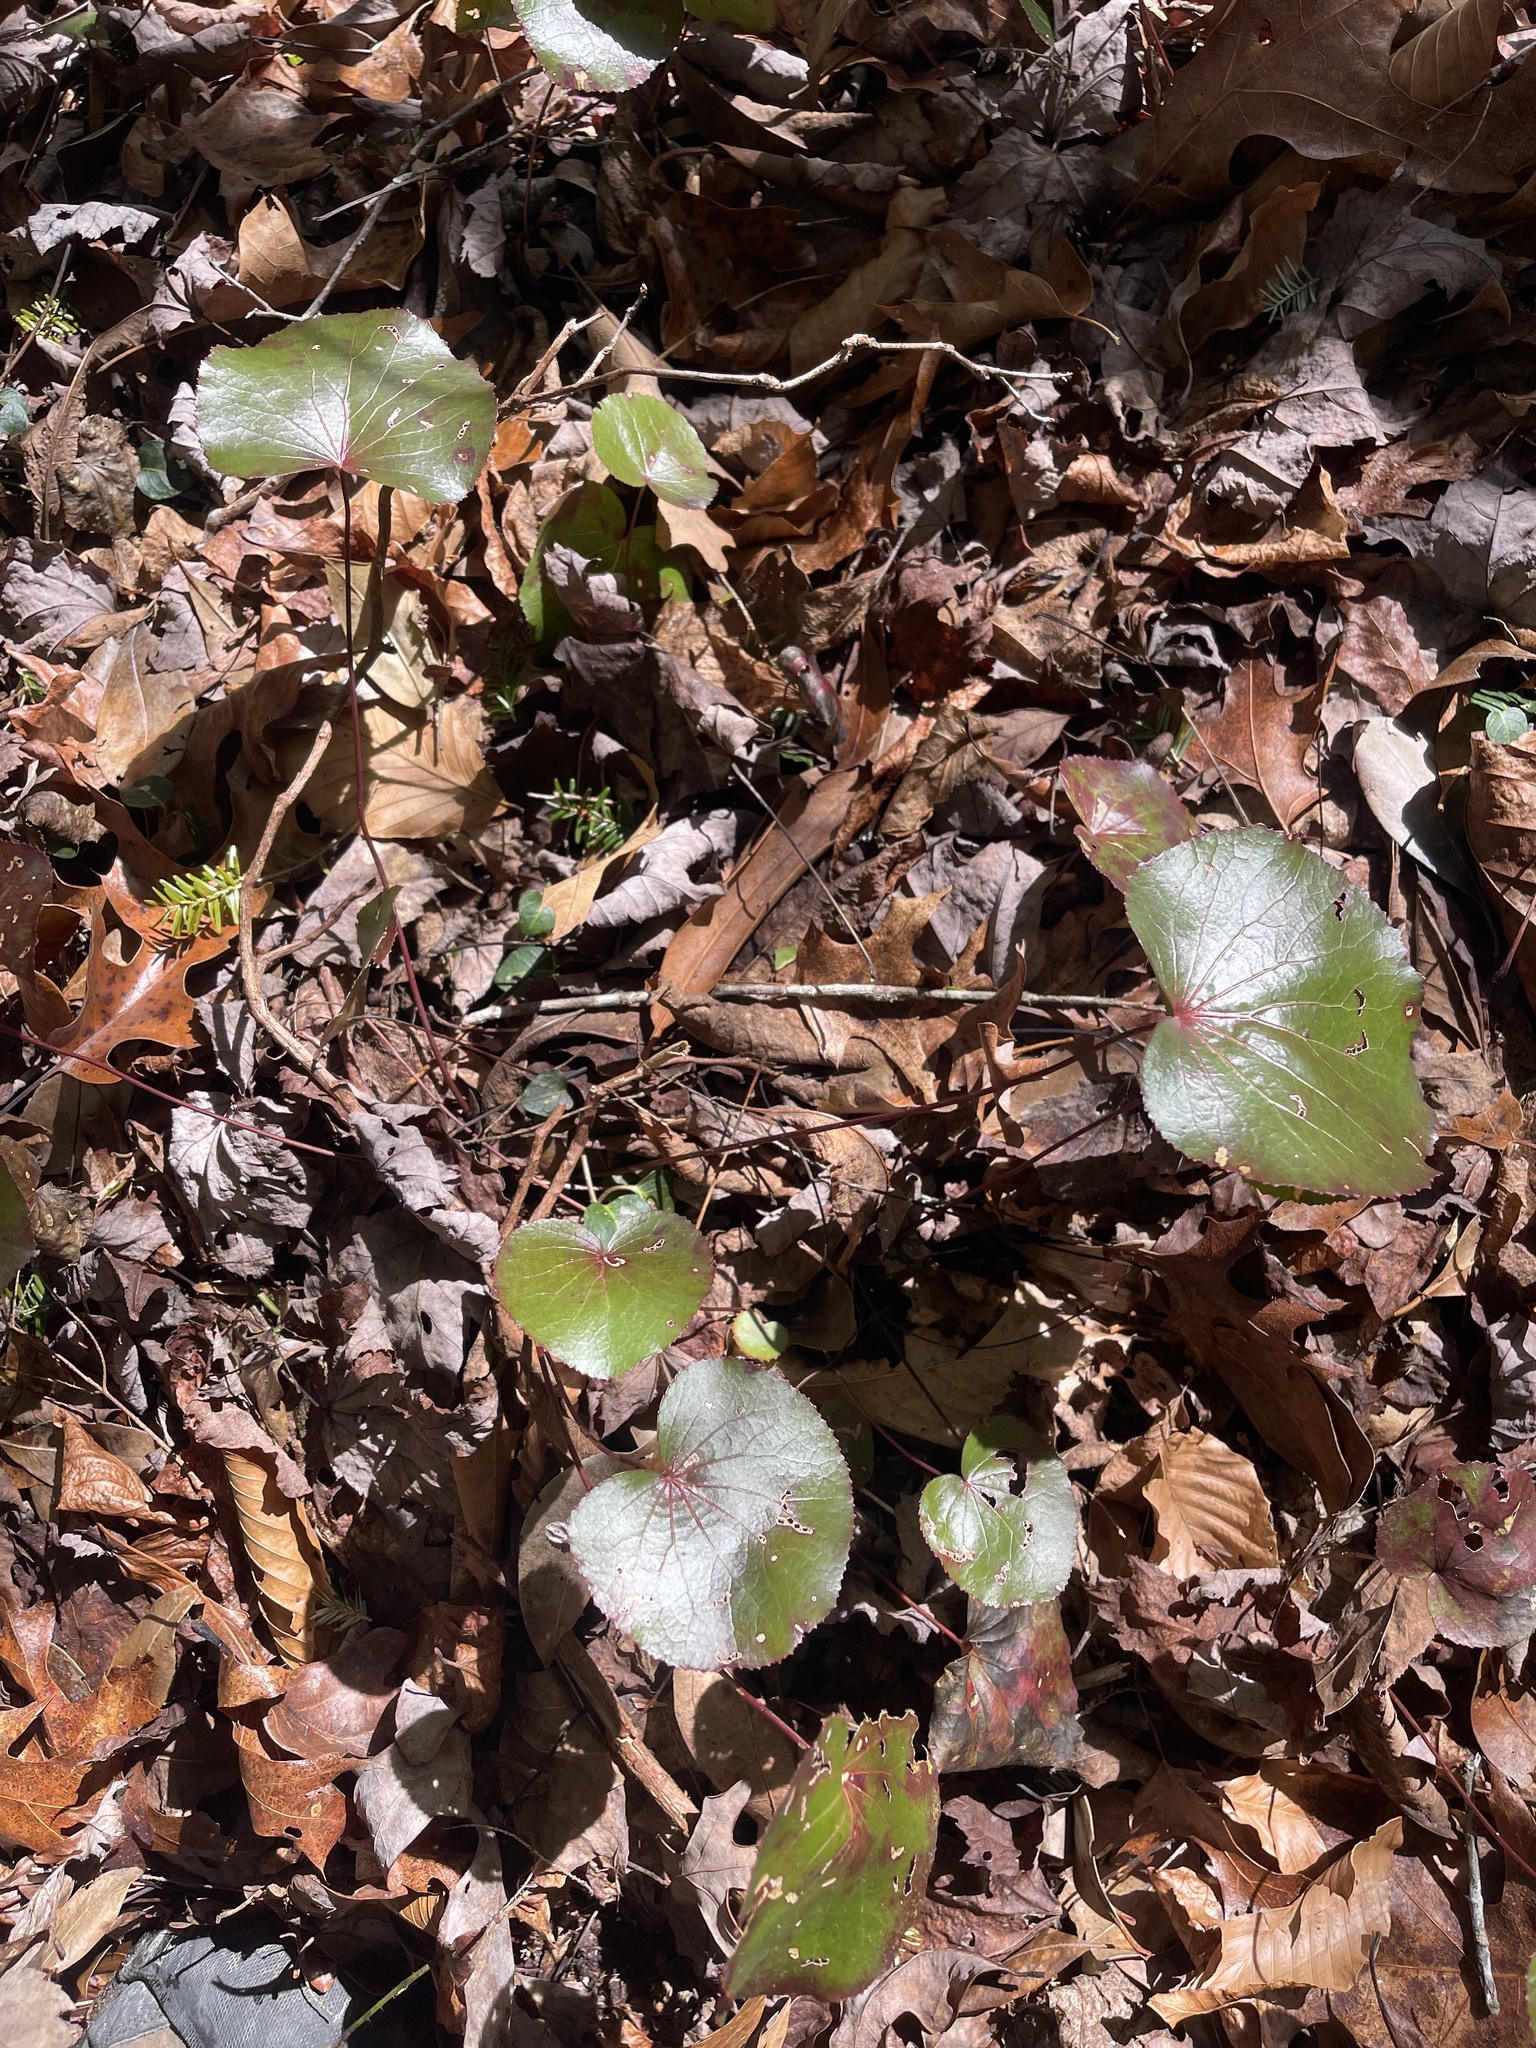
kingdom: Plantae
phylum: Tracheophyta
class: Magnoliopsida
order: Ericales
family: Diapensiaceae
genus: Galax
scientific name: Galax urceolata
